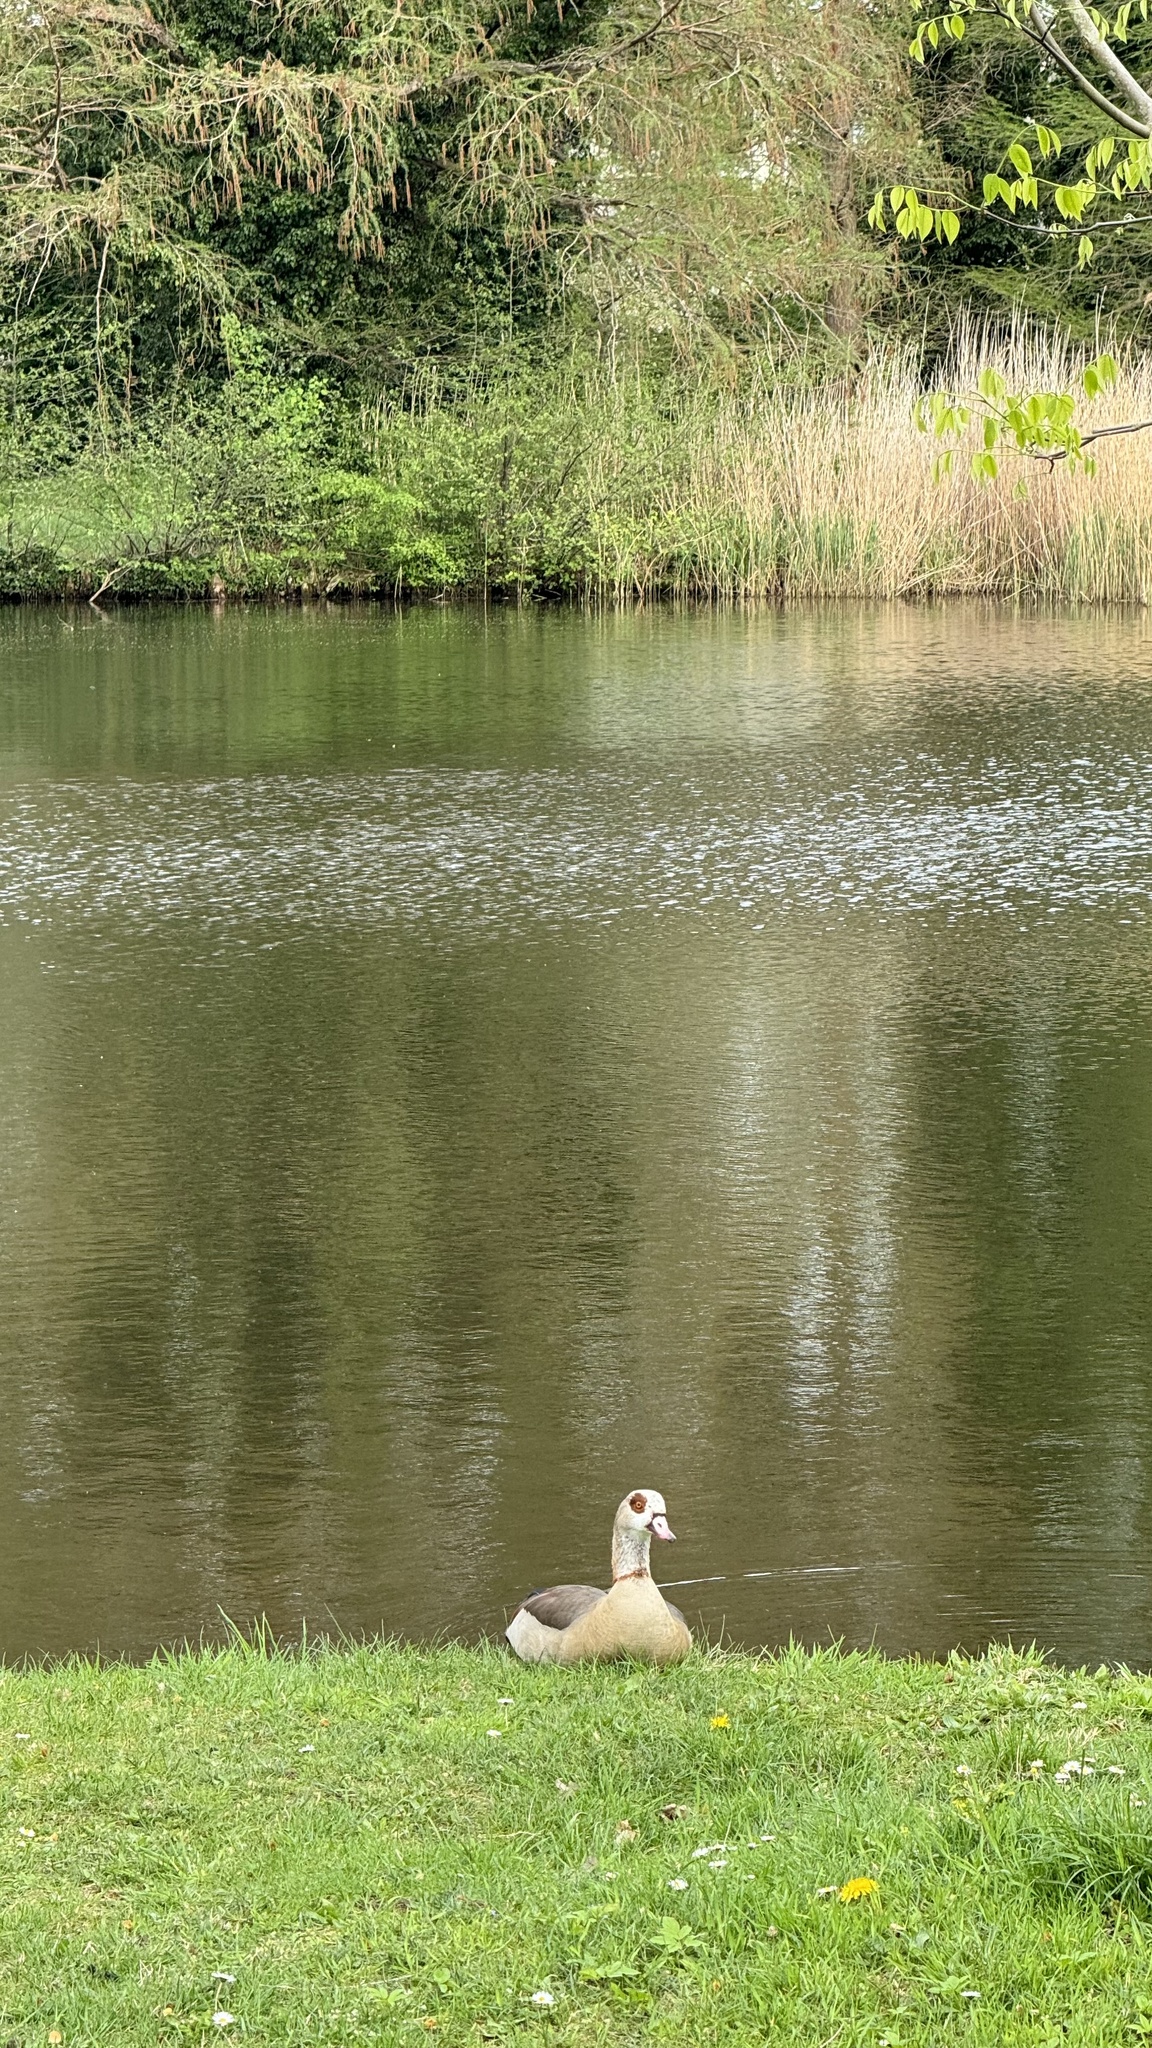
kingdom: Animalia
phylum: Chordata
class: Aves
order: Anseriformes
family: Anatidae
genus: Alopochen
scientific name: Alopochen aegyptiaca
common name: Egyptian goose
